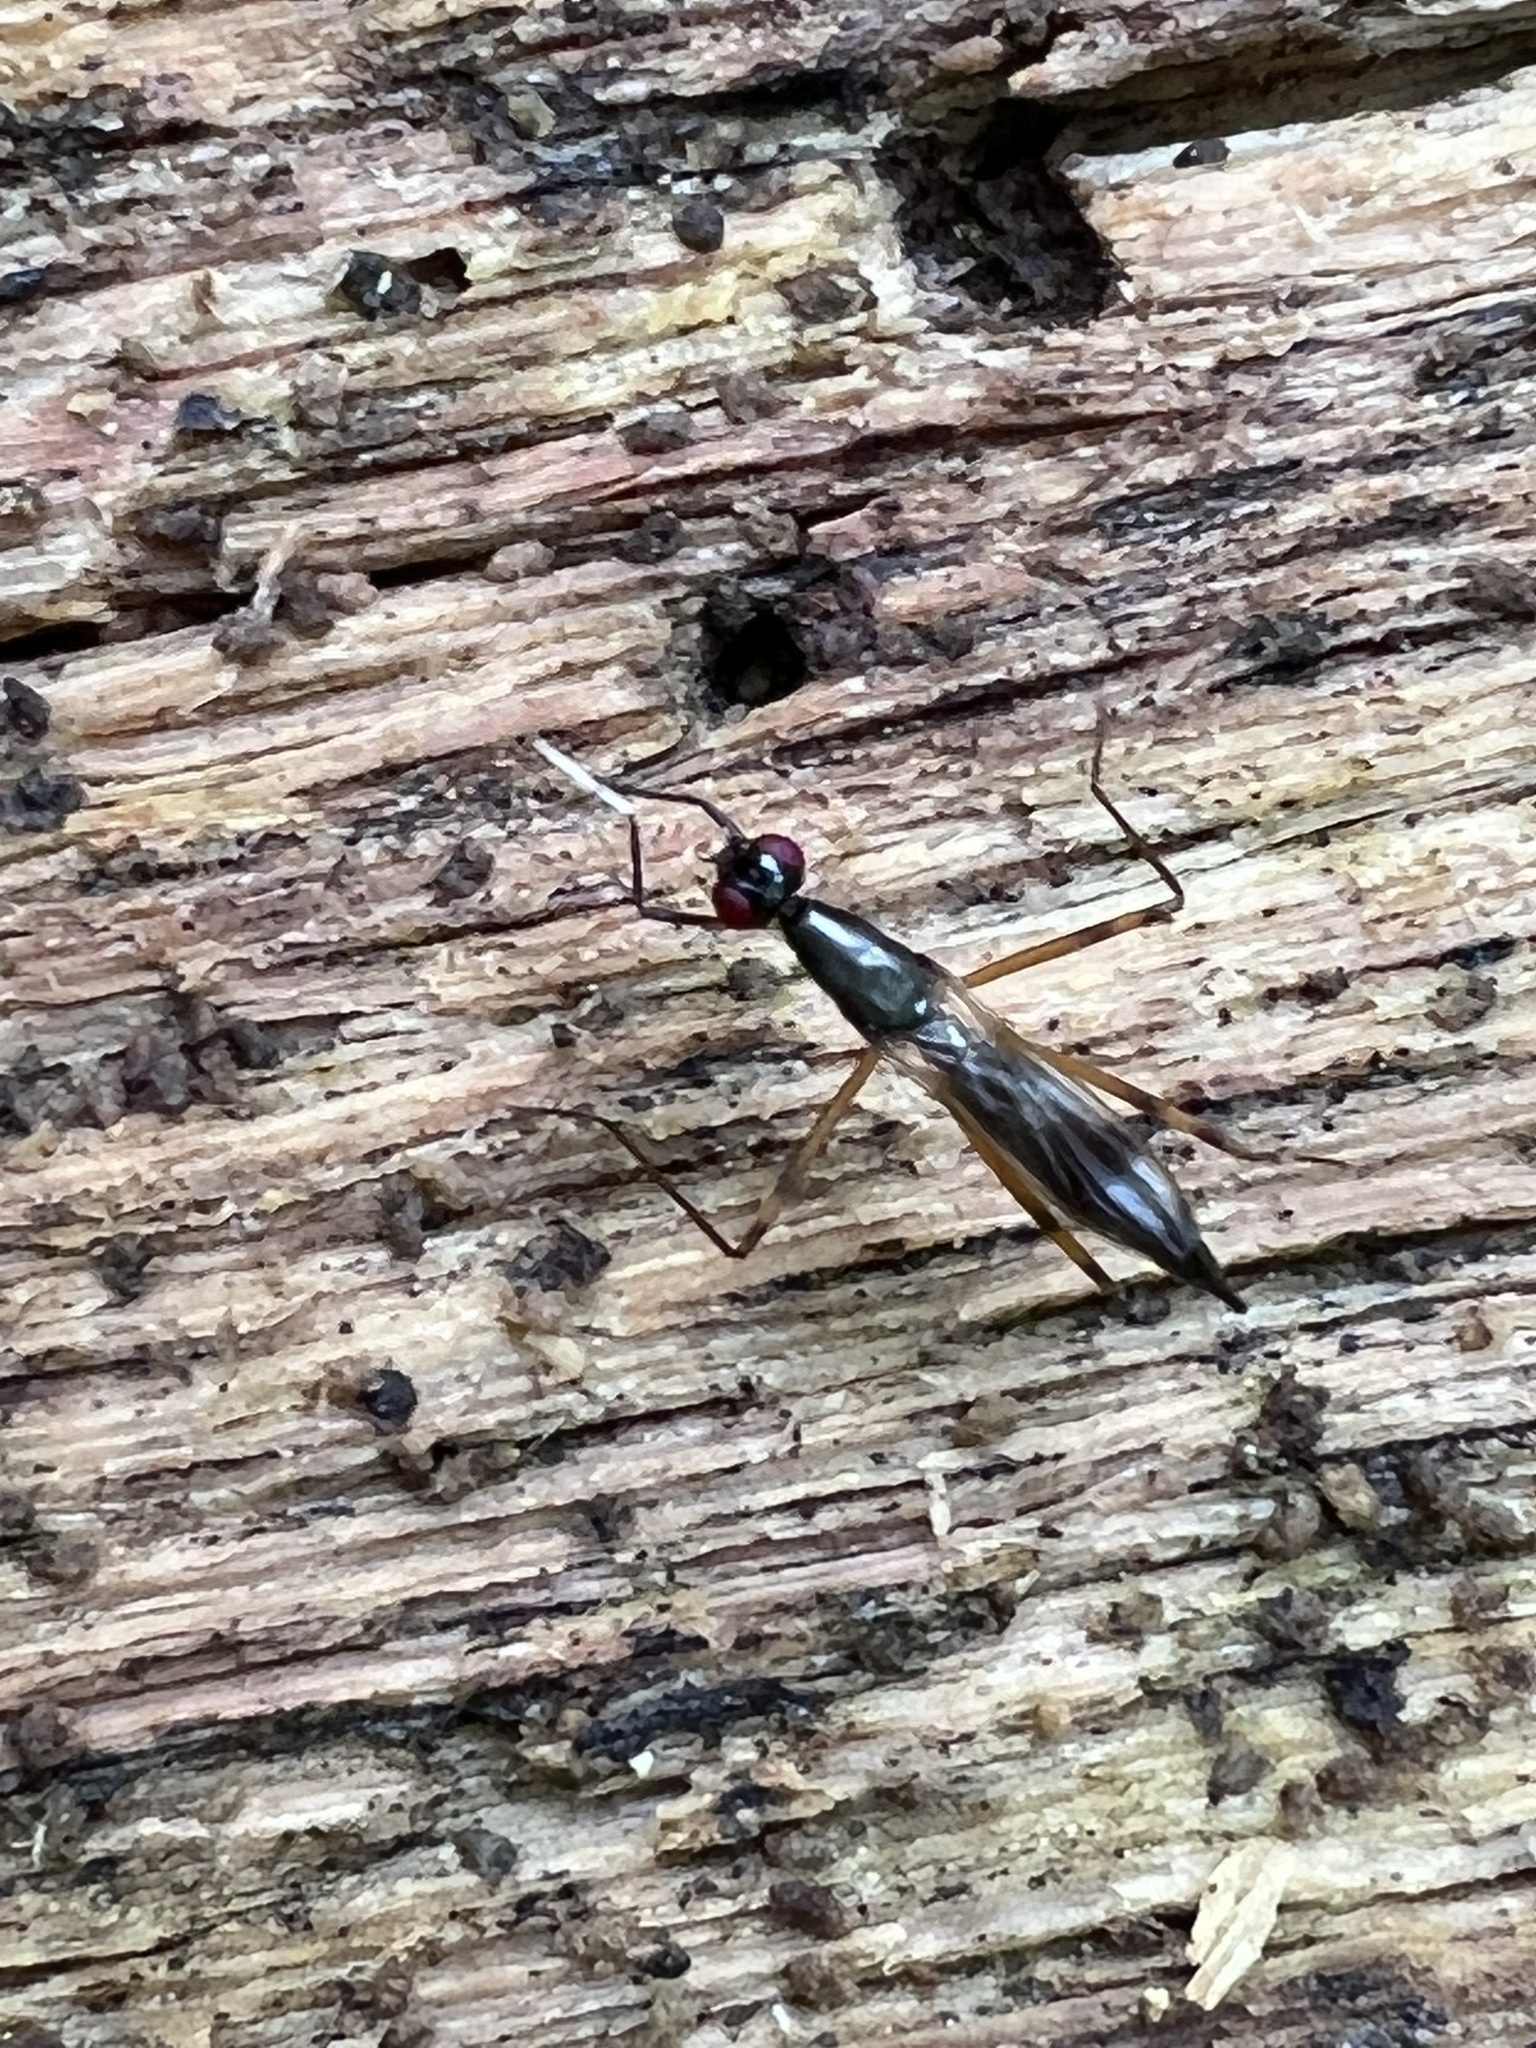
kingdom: Animalia
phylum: Arthropoda
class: Insecta
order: Diptera
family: Micropezidae
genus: Rainieria
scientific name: Rainieria antennaepes
